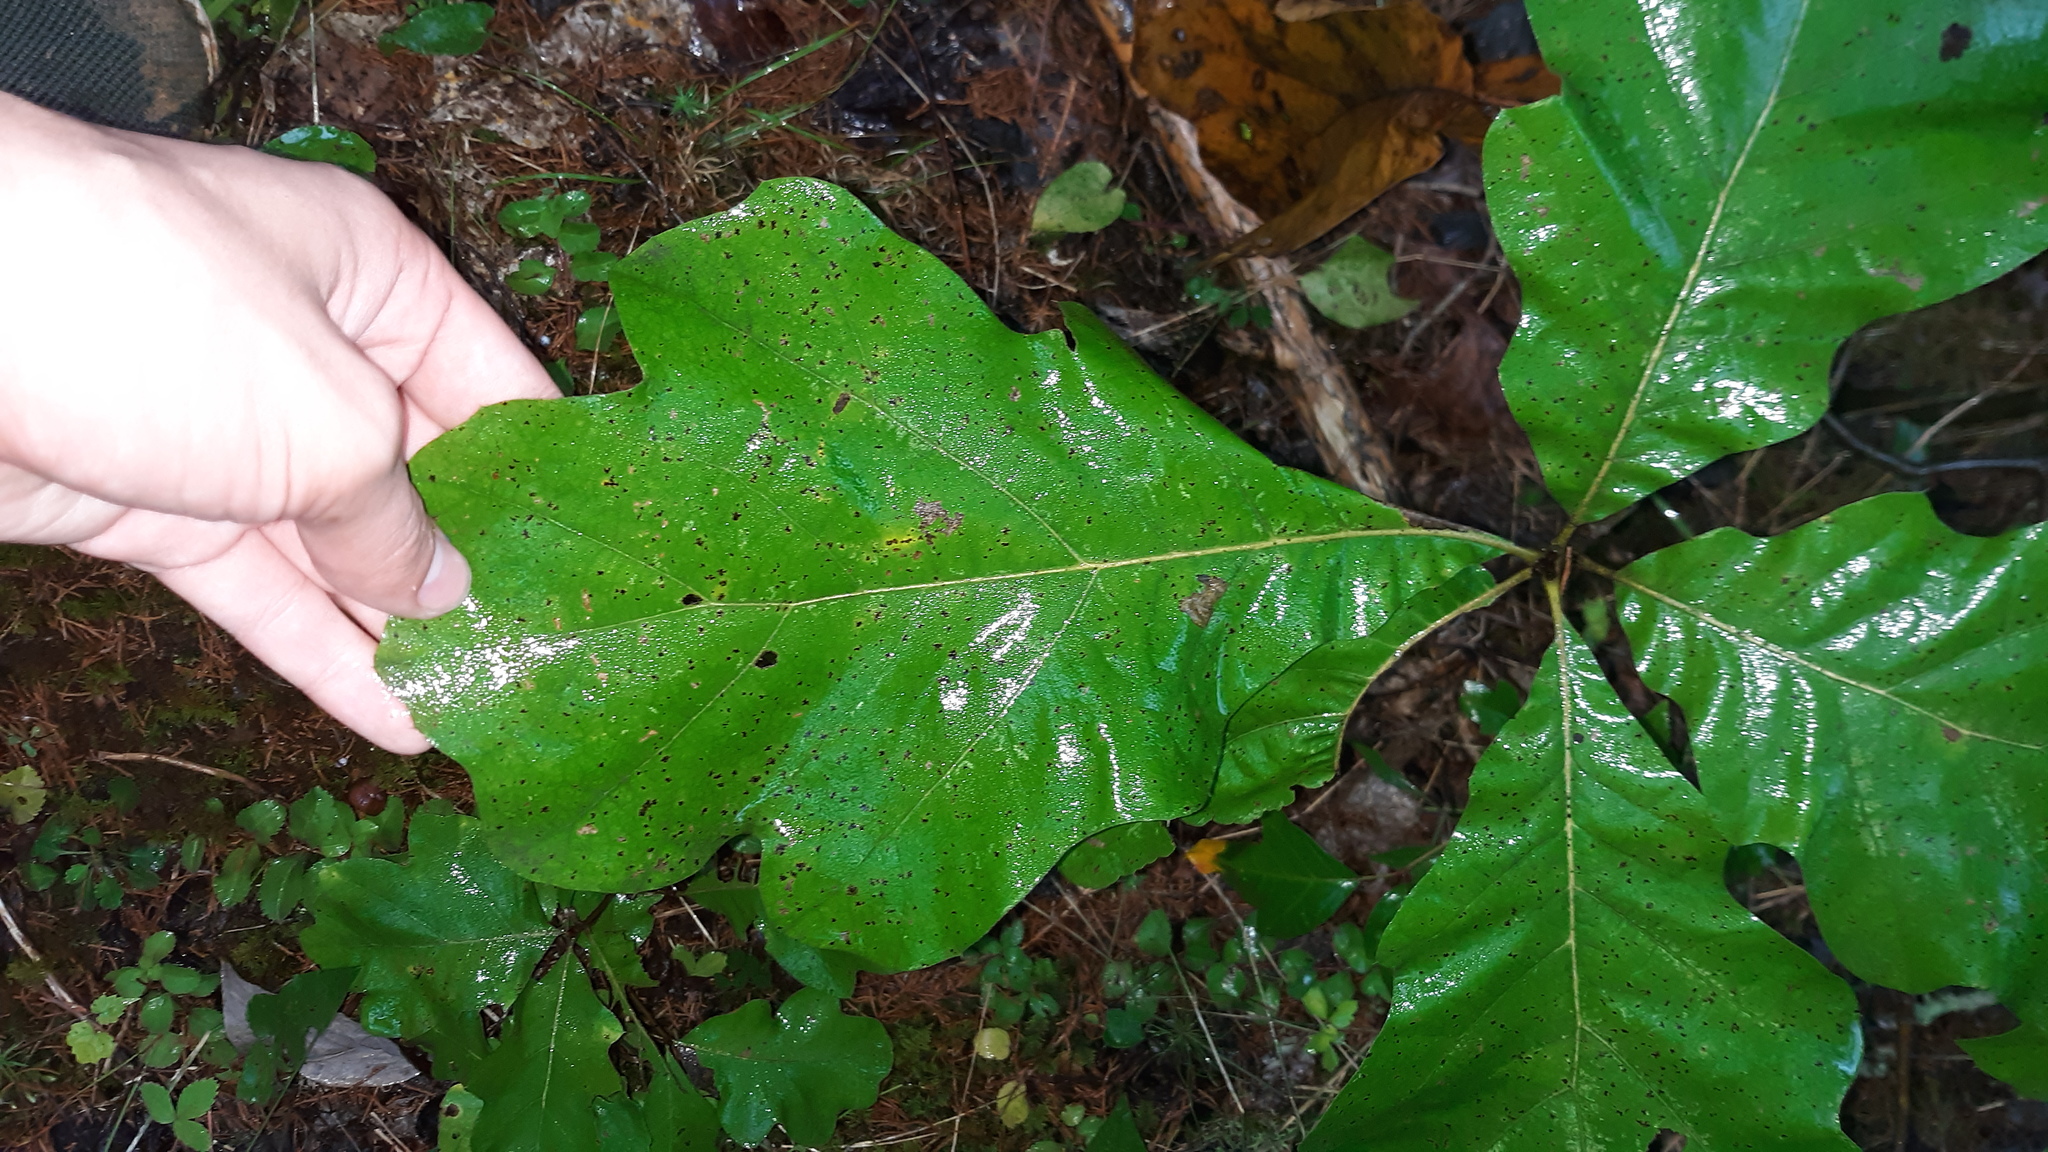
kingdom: Plantae
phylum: Tracheophyta
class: Magnoliopsida
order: Fagales
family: Fagaceae
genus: Quercus
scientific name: Quercus marilandica
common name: Blackjack oak
